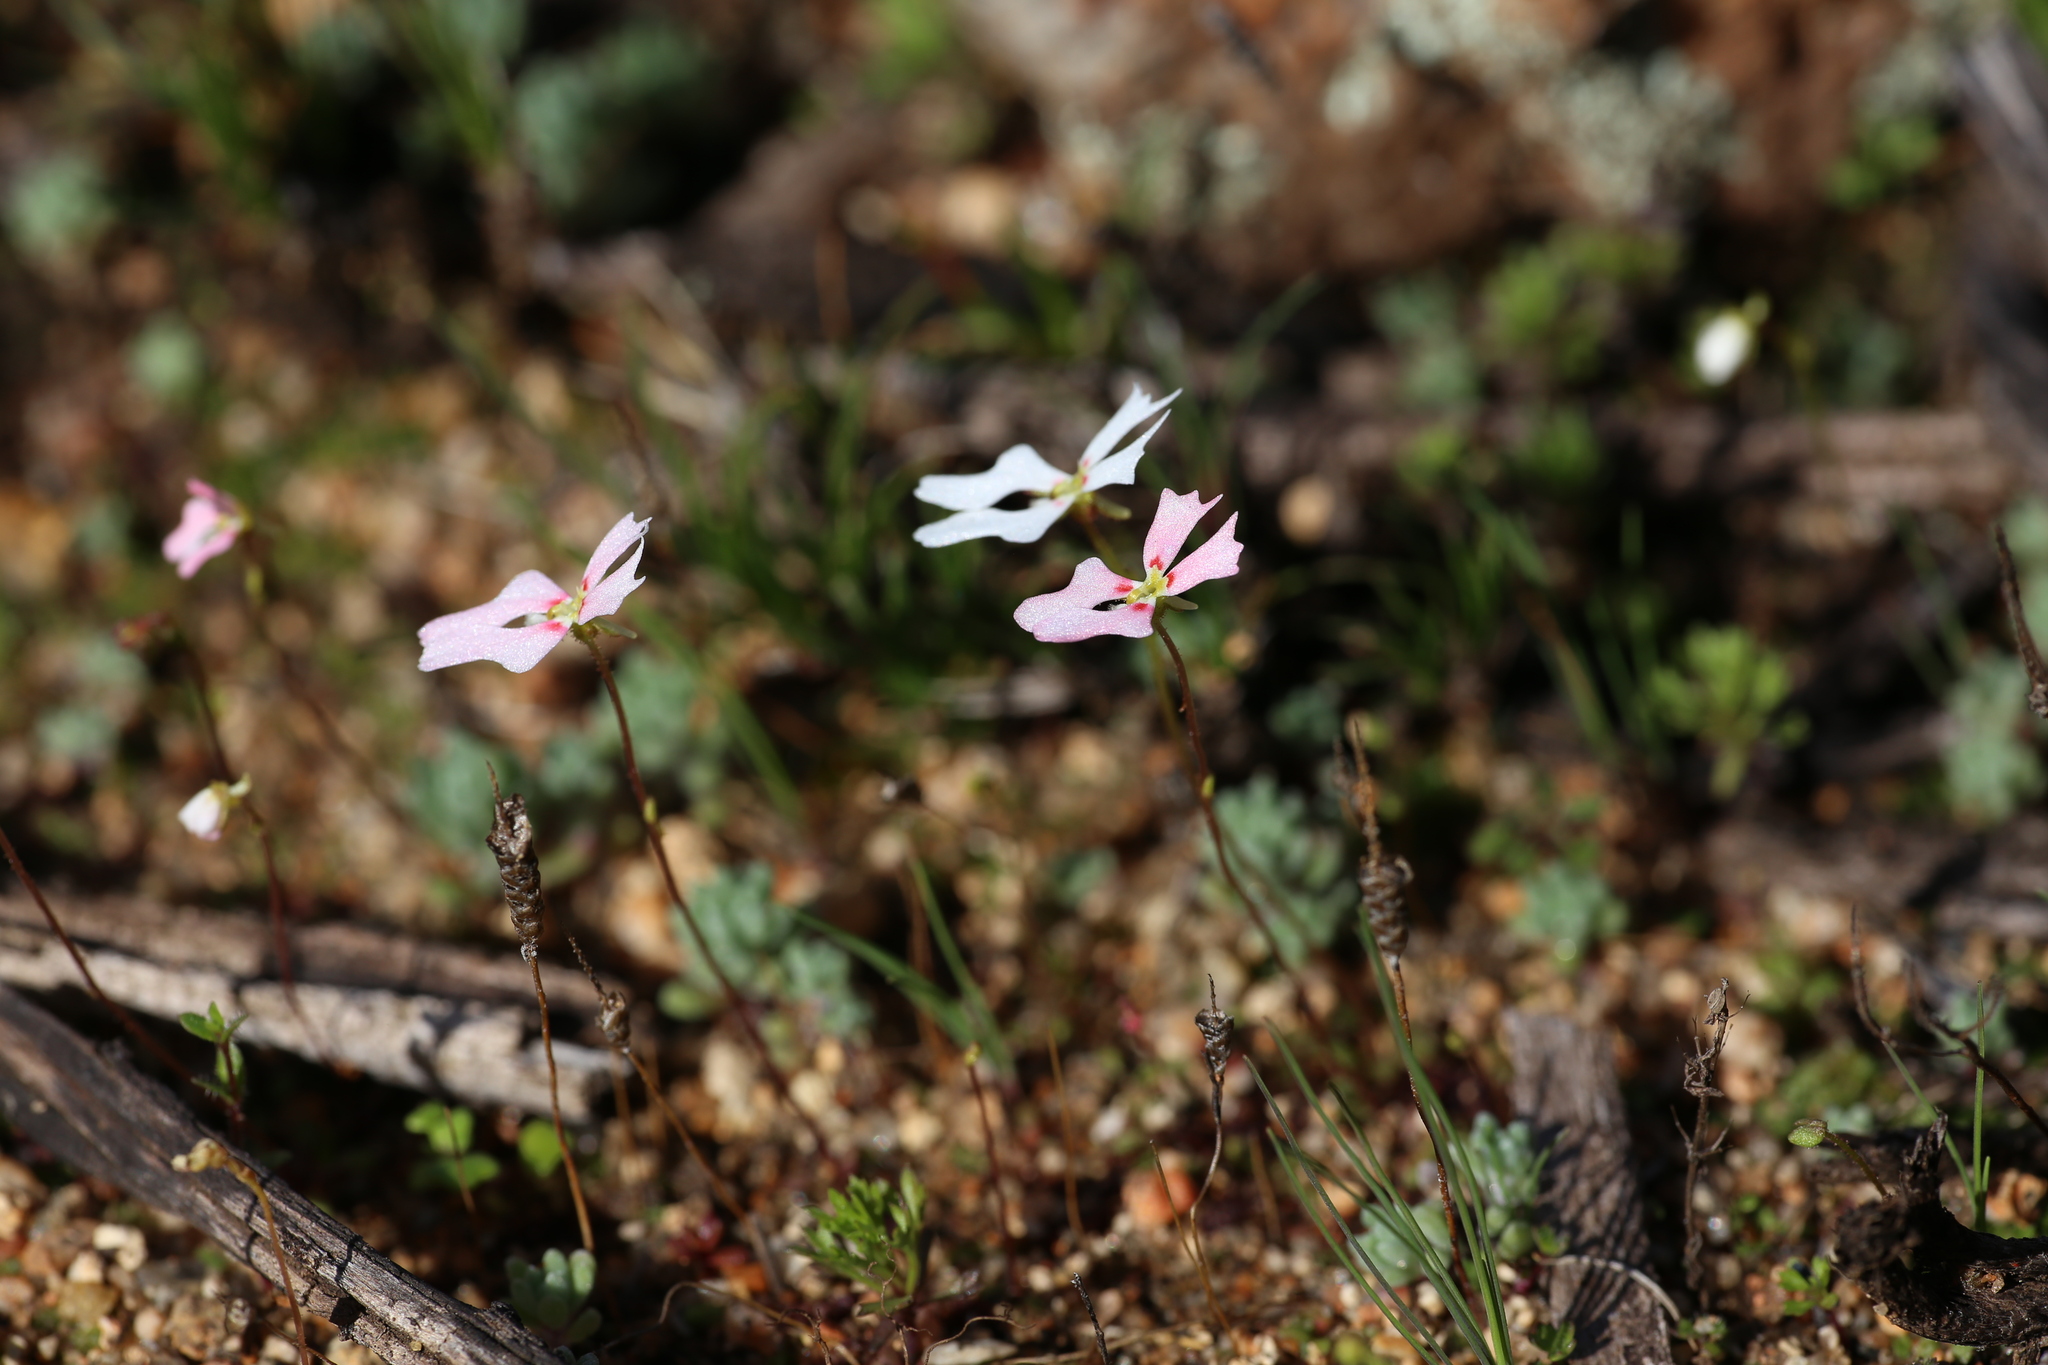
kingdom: Plantae
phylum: Tracheophyta
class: Magnoliopsida
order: Asterales
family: Stylidiaceae
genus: Stylidium
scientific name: Stylidium androsaceum
